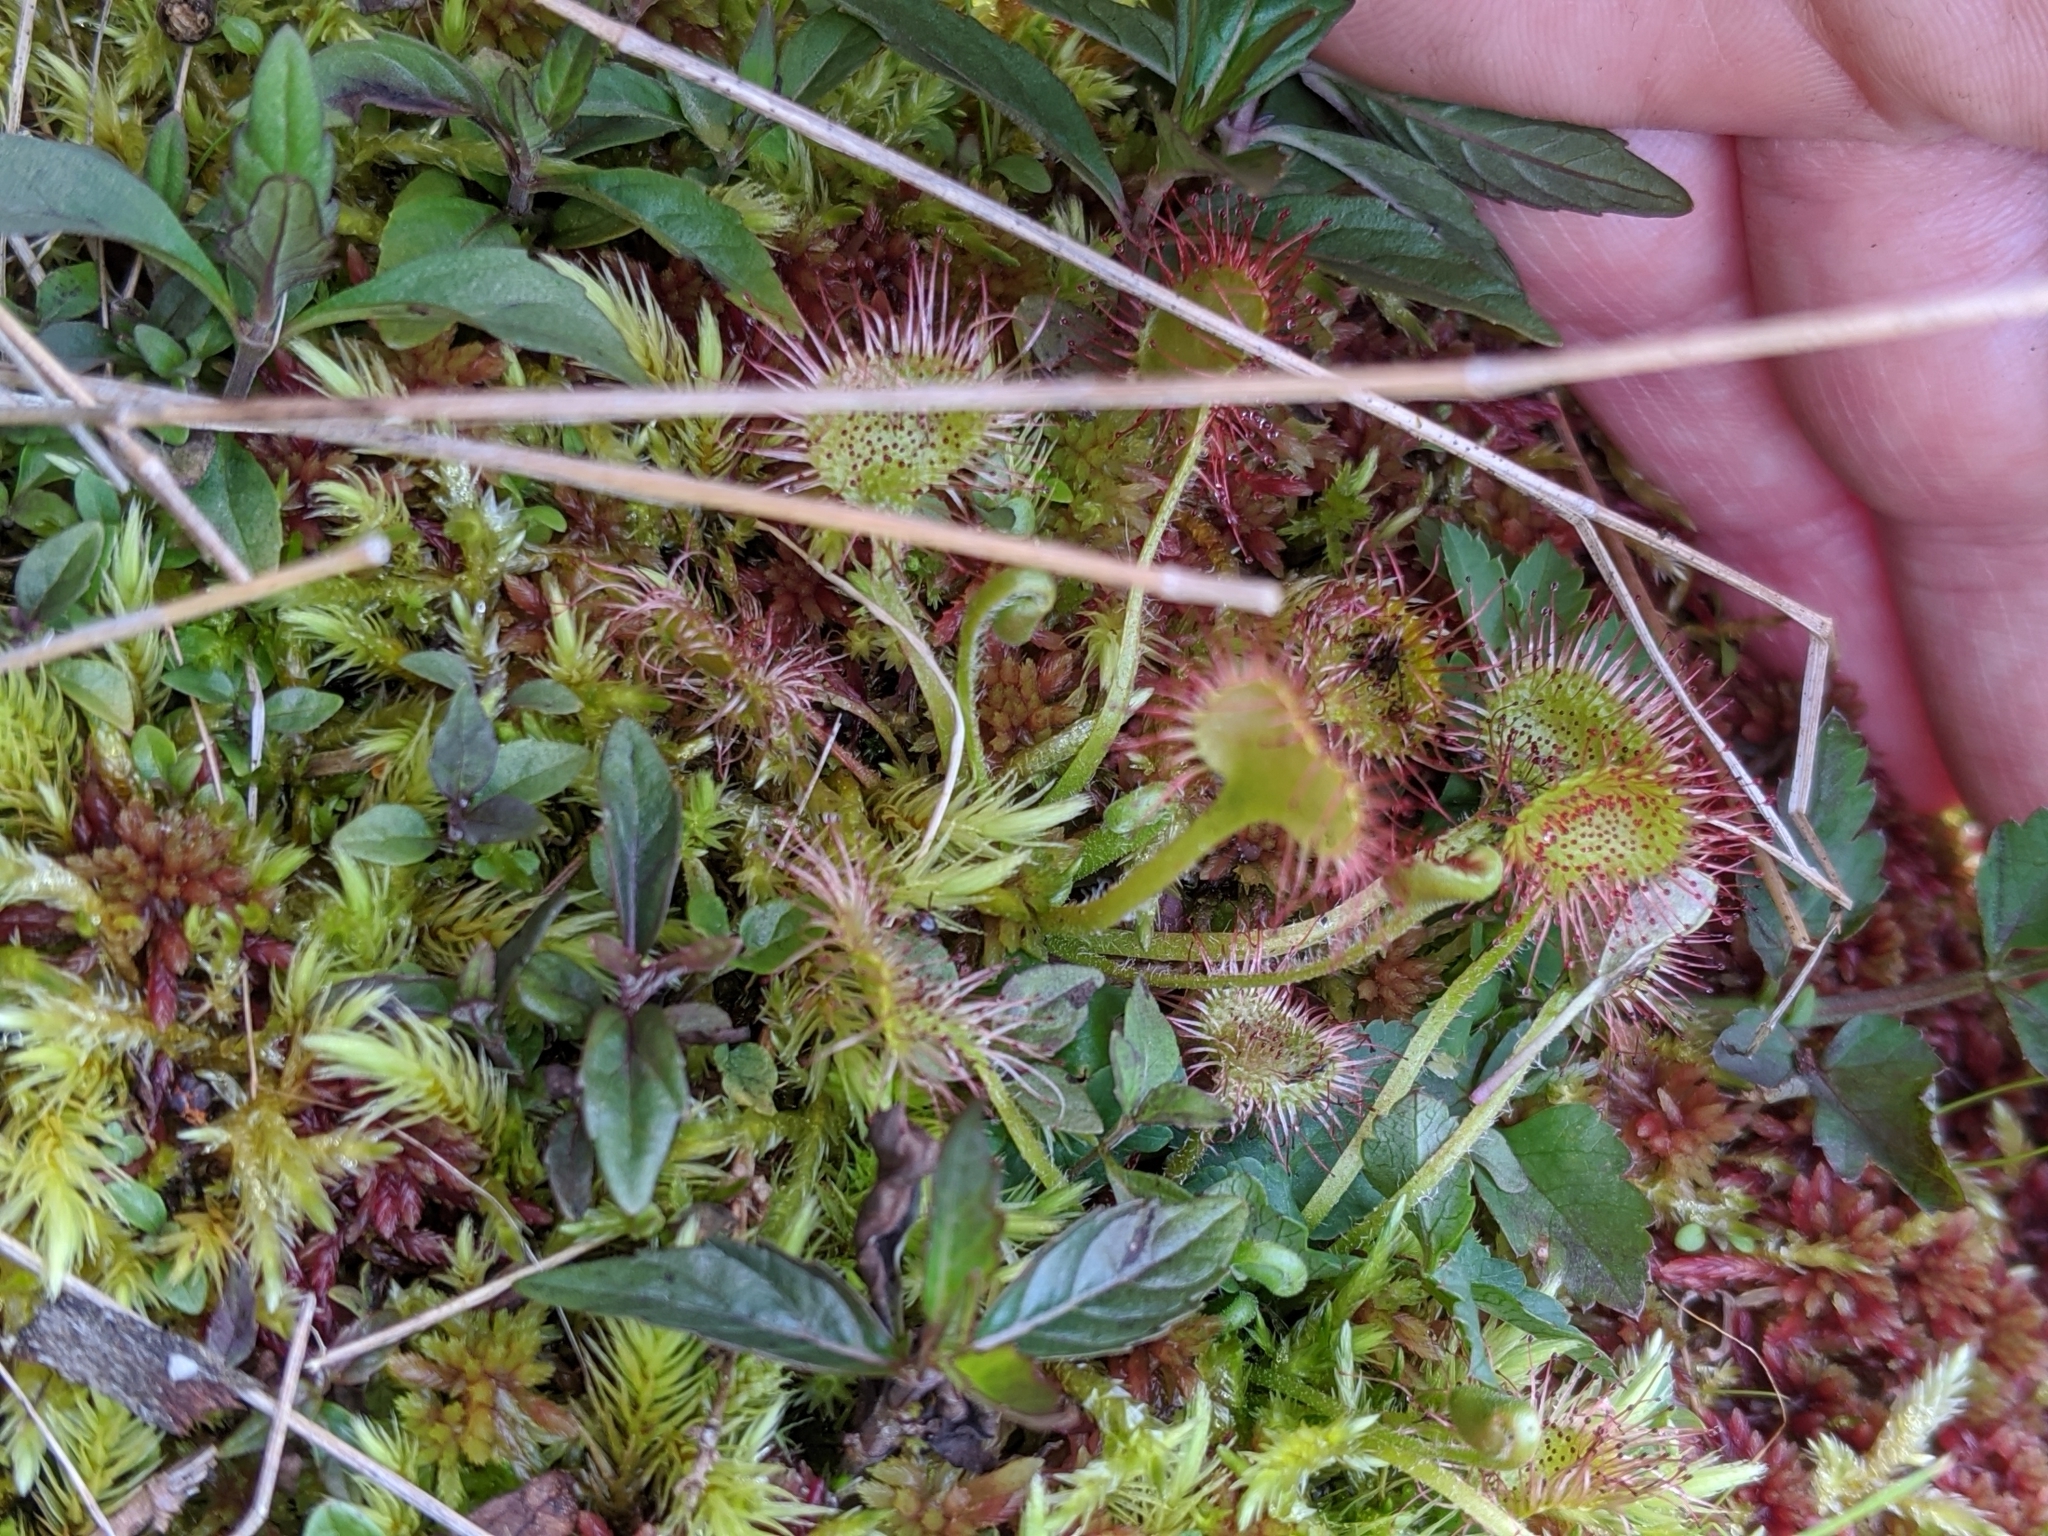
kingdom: Plantae
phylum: Tracheophyta
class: Magnoliopsida
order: Caryophyllales
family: Droseraceae
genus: Drosera
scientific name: Drosera rotundifolia
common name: Round-leaved sundew
